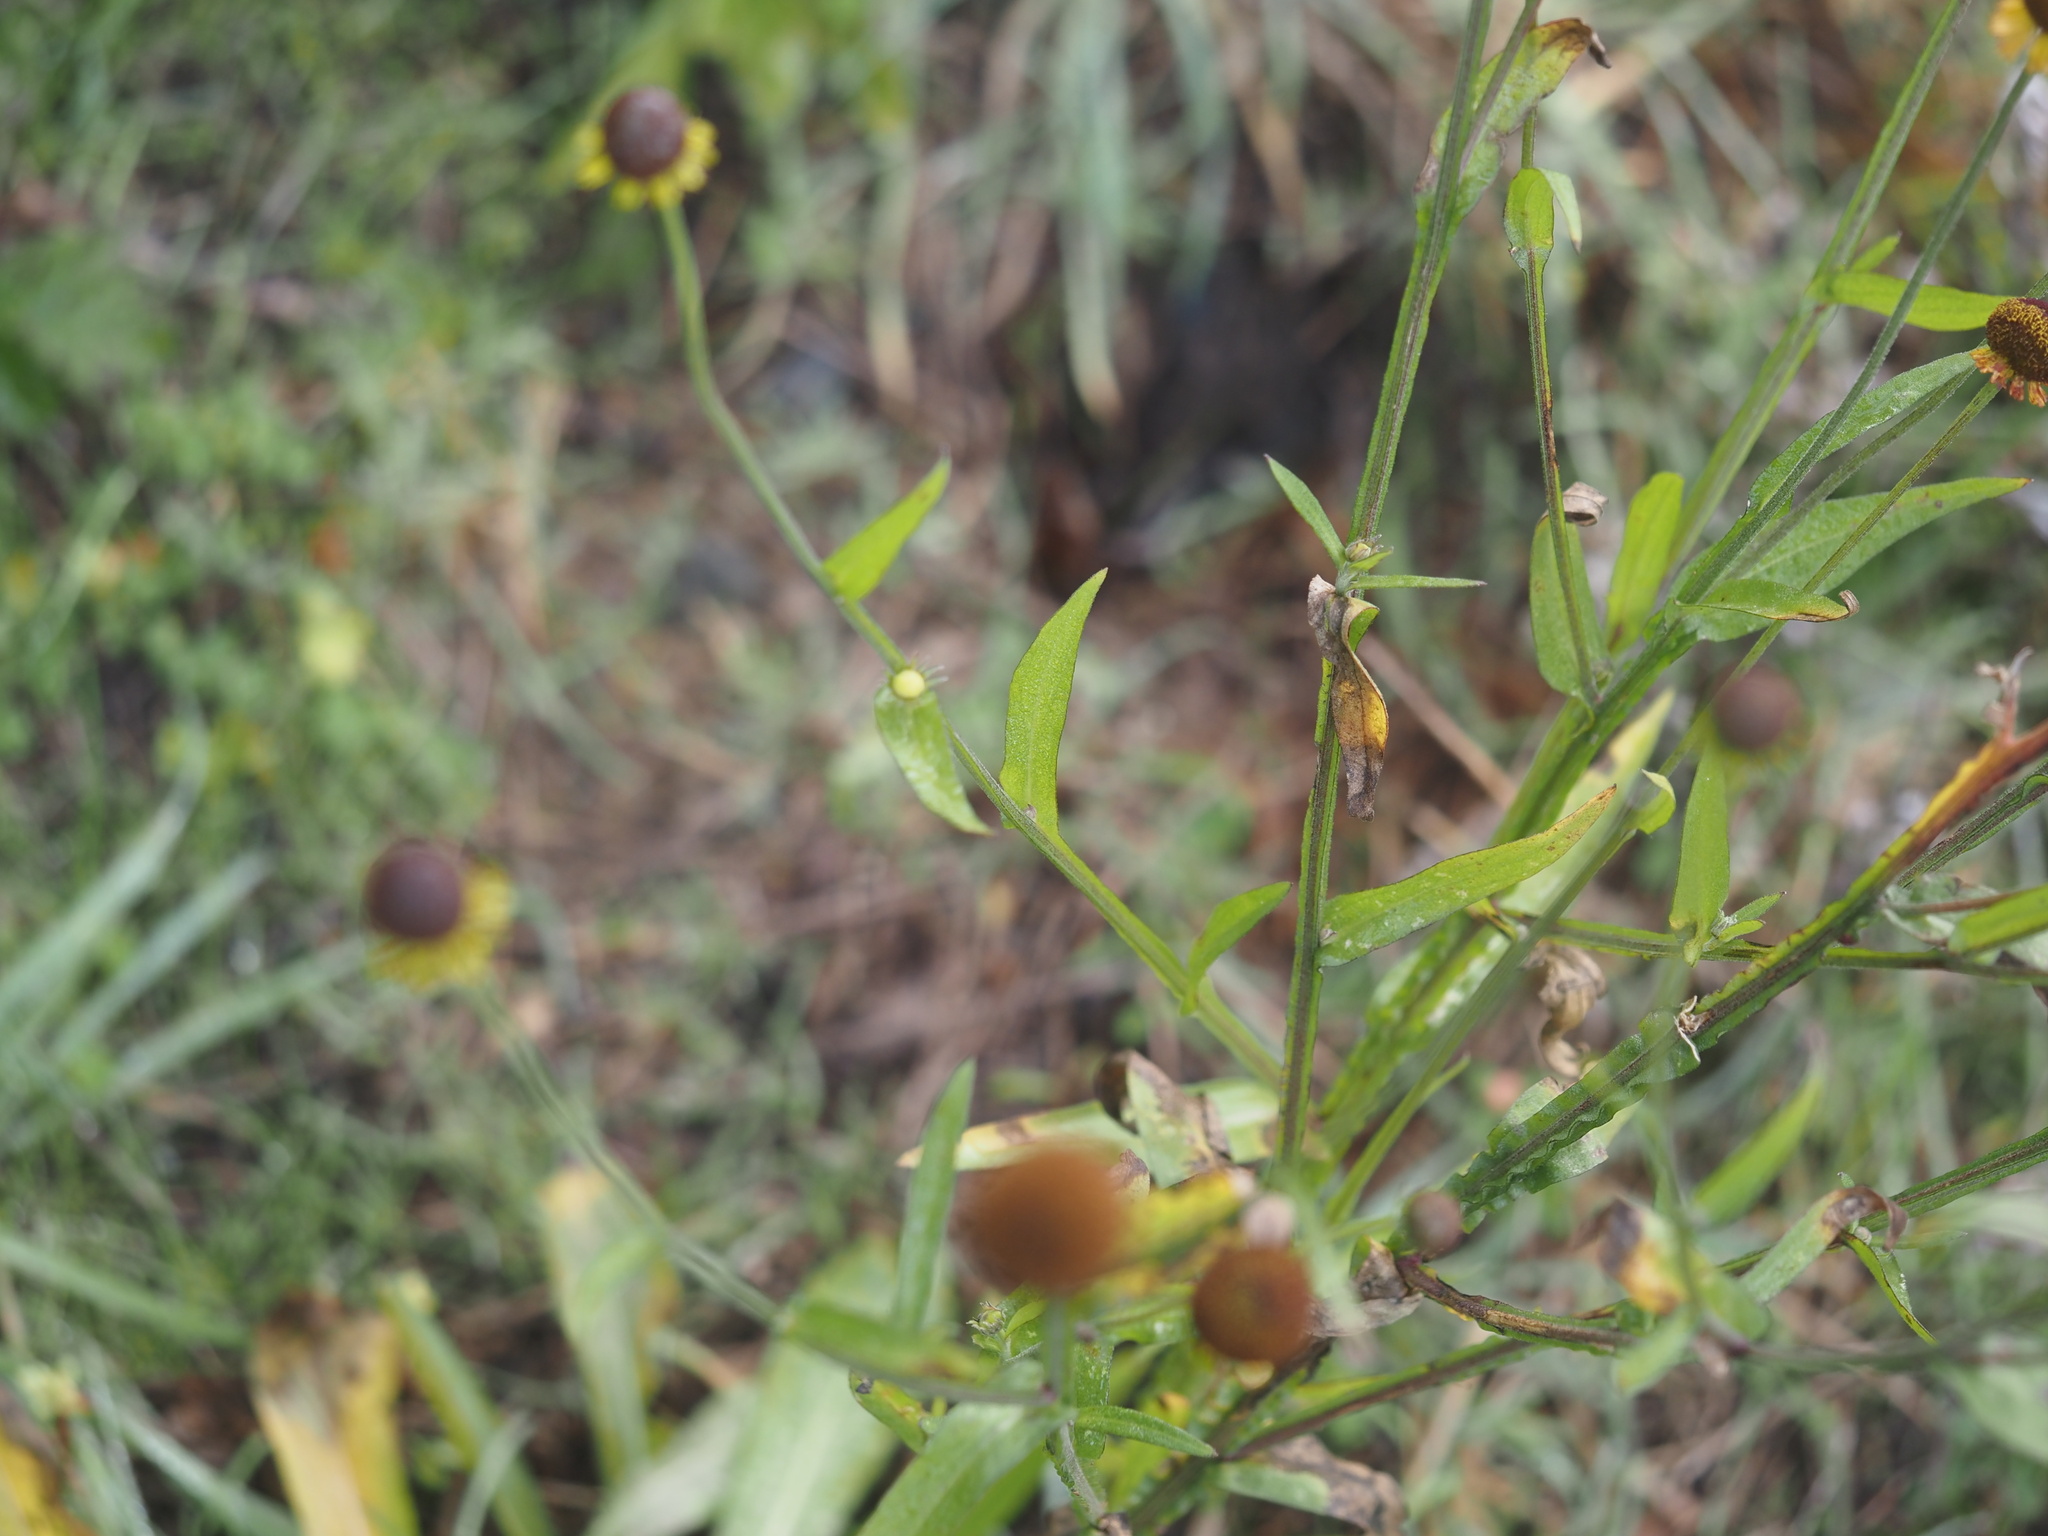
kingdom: Plantae
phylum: Tracheophyta
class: Magnoliopsida
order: Asterales
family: Asteraceae
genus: Helenium
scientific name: Helenium puberulum
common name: Sneezewort
